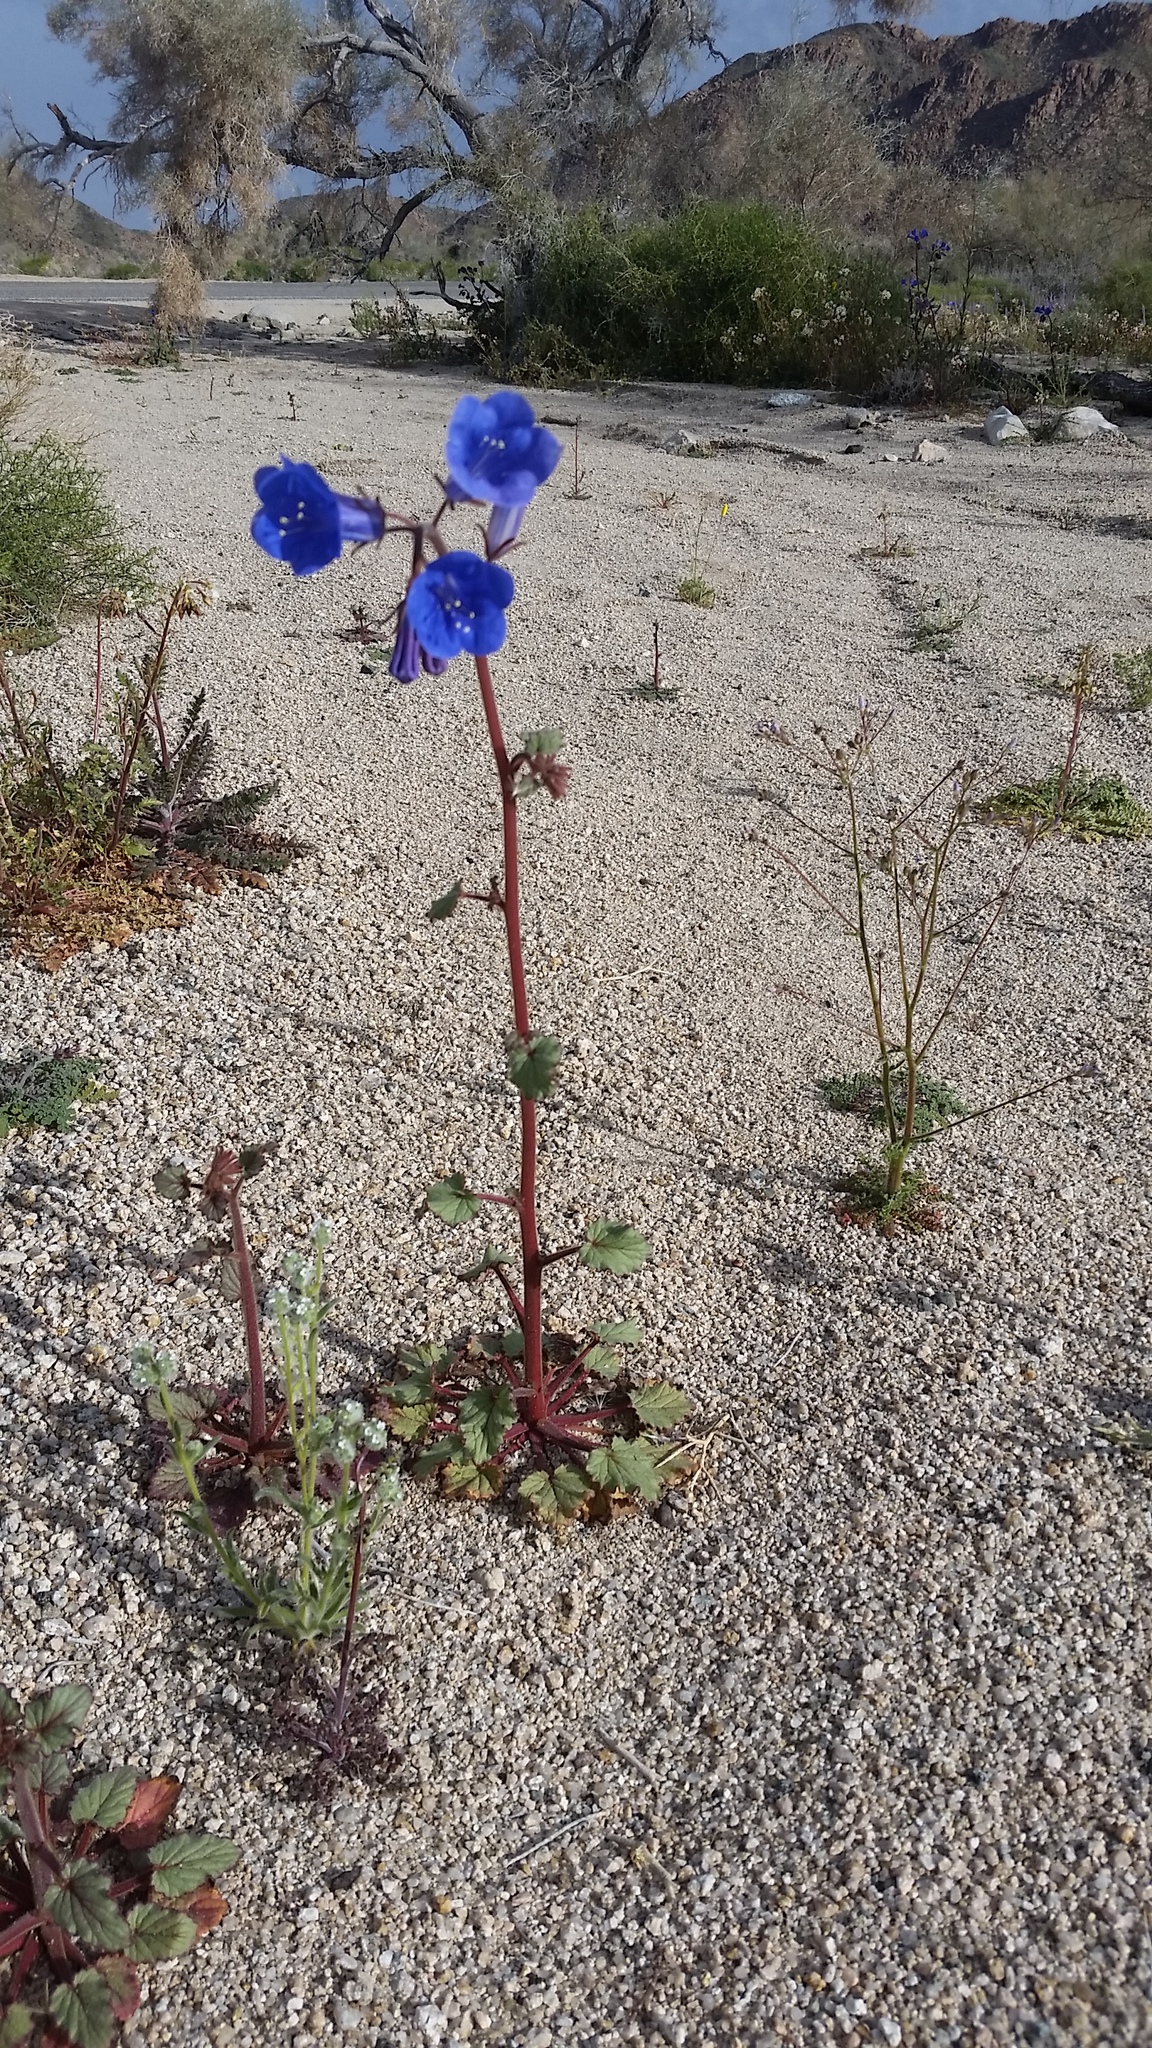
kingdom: Plantae
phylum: Tracheophyta
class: Magnoliopsida
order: Boraginales
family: Hydrophyllaceae
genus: Phacelia
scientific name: Phacelia campanularia
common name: California bluebell
